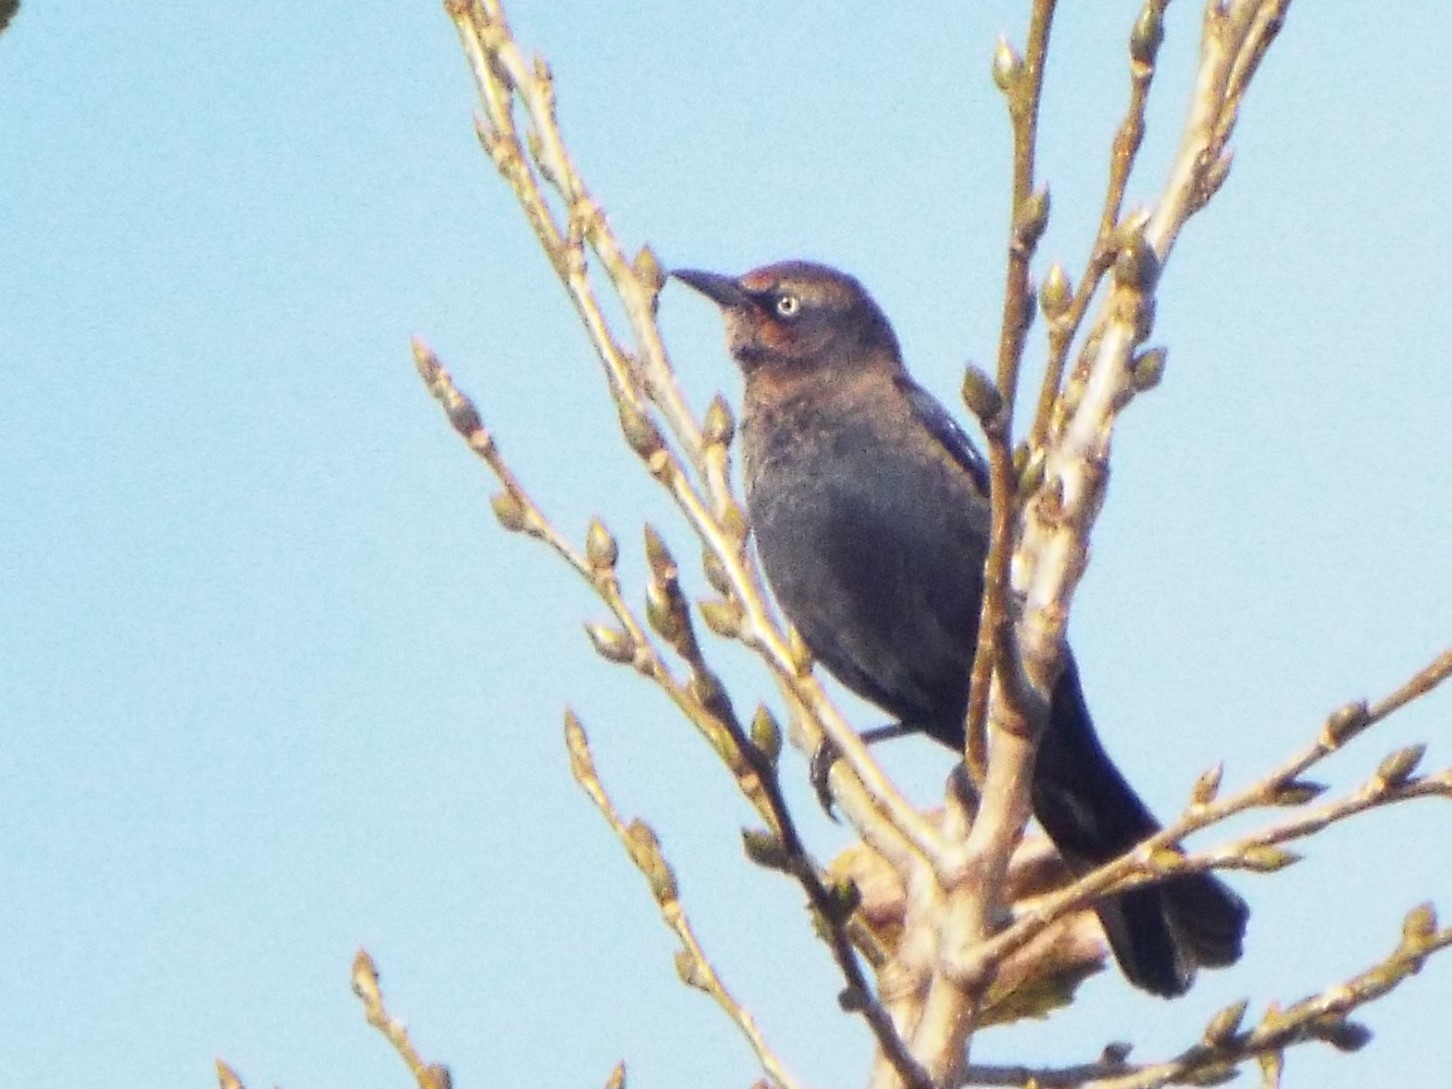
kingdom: Animalia
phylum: Chordata
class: Aves
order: Passeriformes
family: Icteridae
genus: Euphagus
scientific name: Euphagus carolinus
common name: Rusty blackbird
